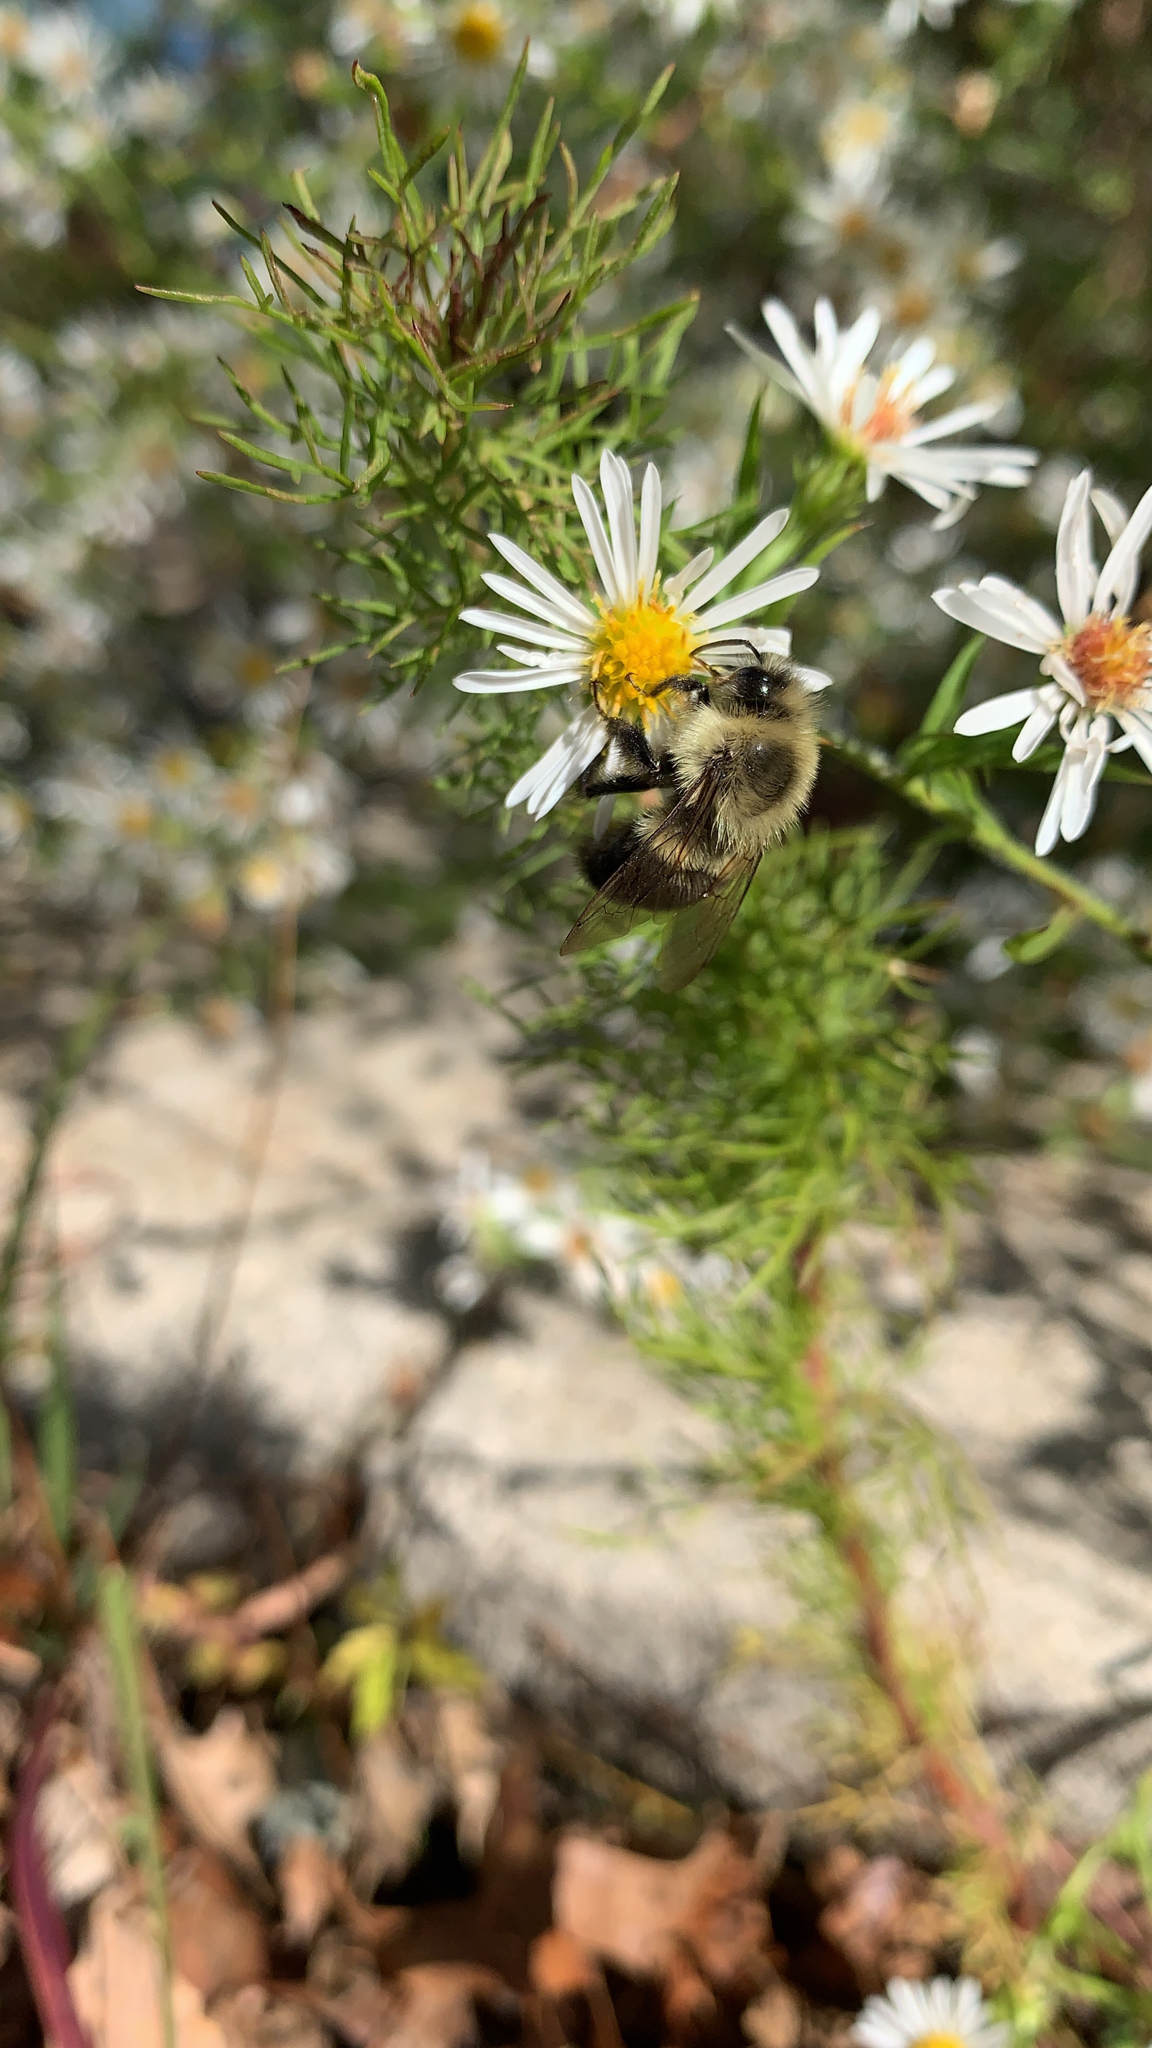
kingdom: Animalia
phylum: Arthropoda
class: Insecta
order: Hymenoptera
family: Apidae
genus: Bombus
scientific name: Bombus impatiens
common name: Common eastern bumble bee
